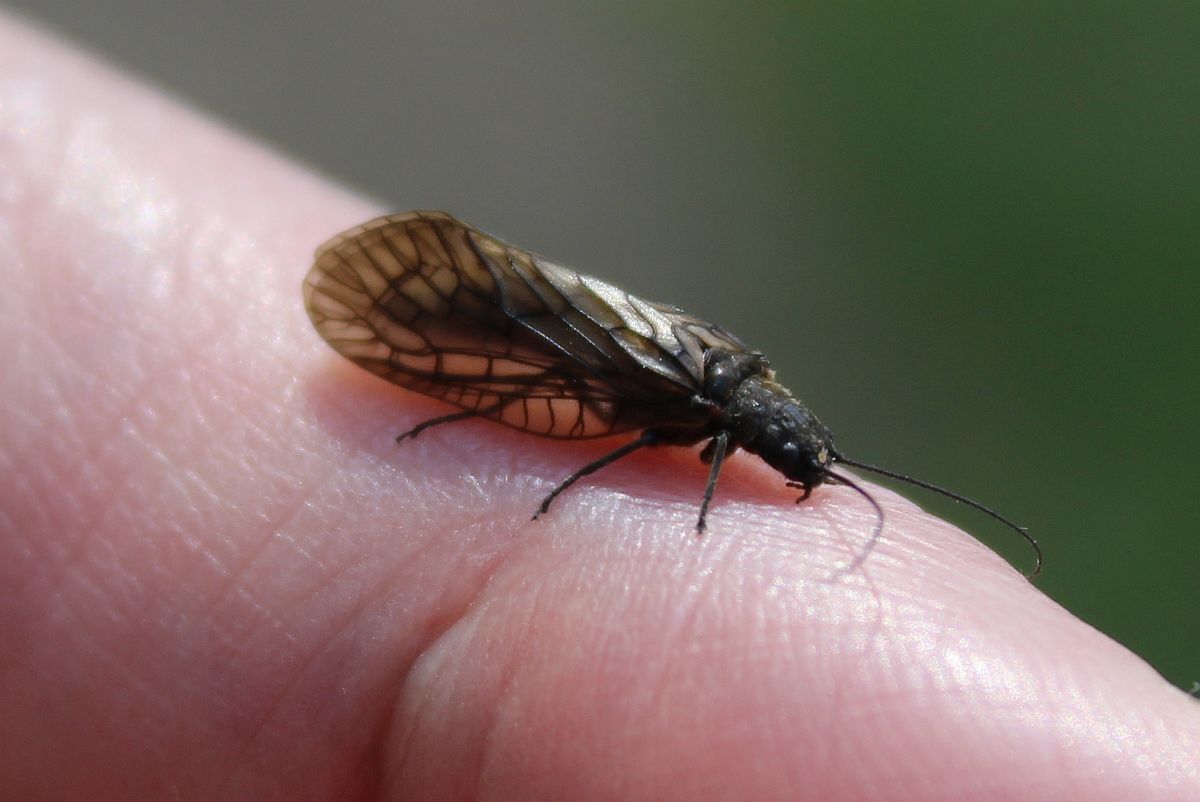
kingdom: Animalia
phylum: Arthropoda
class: Insecta
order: Megaloptera
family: Sialidae
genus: Sialis
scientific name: Sialis
